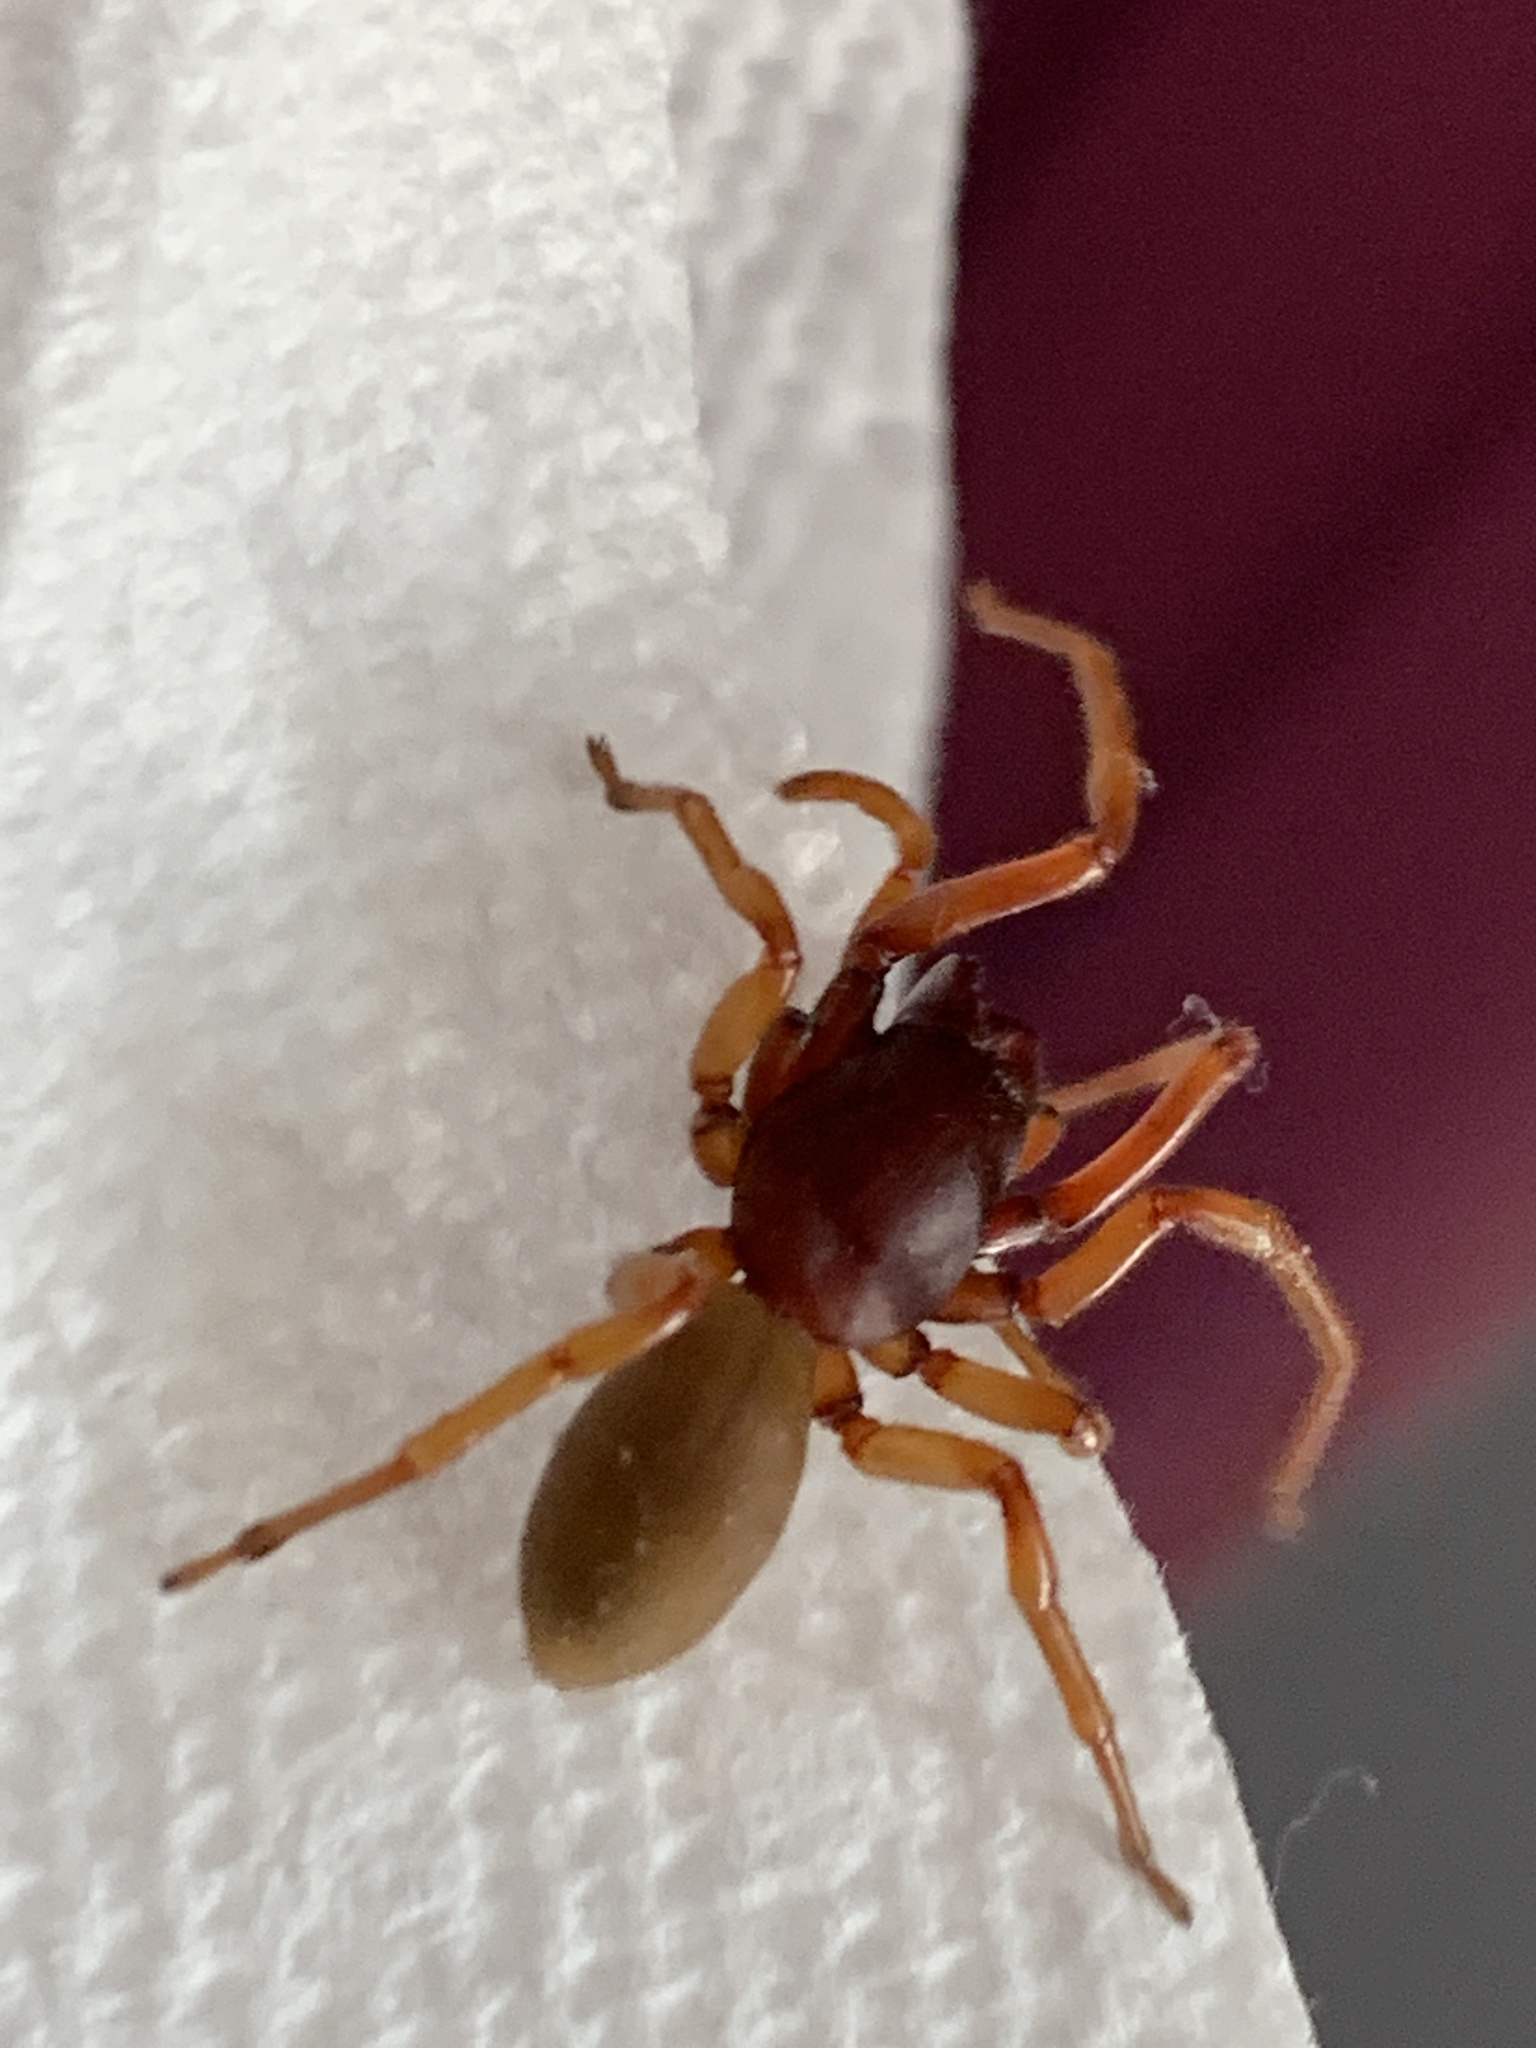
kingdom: Animalia
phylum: Arthropoda
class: Arachnida
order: Araneae
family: Dysderidae
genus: Dysdera
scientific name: Dysdera crocata
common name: Woodlouse spider
